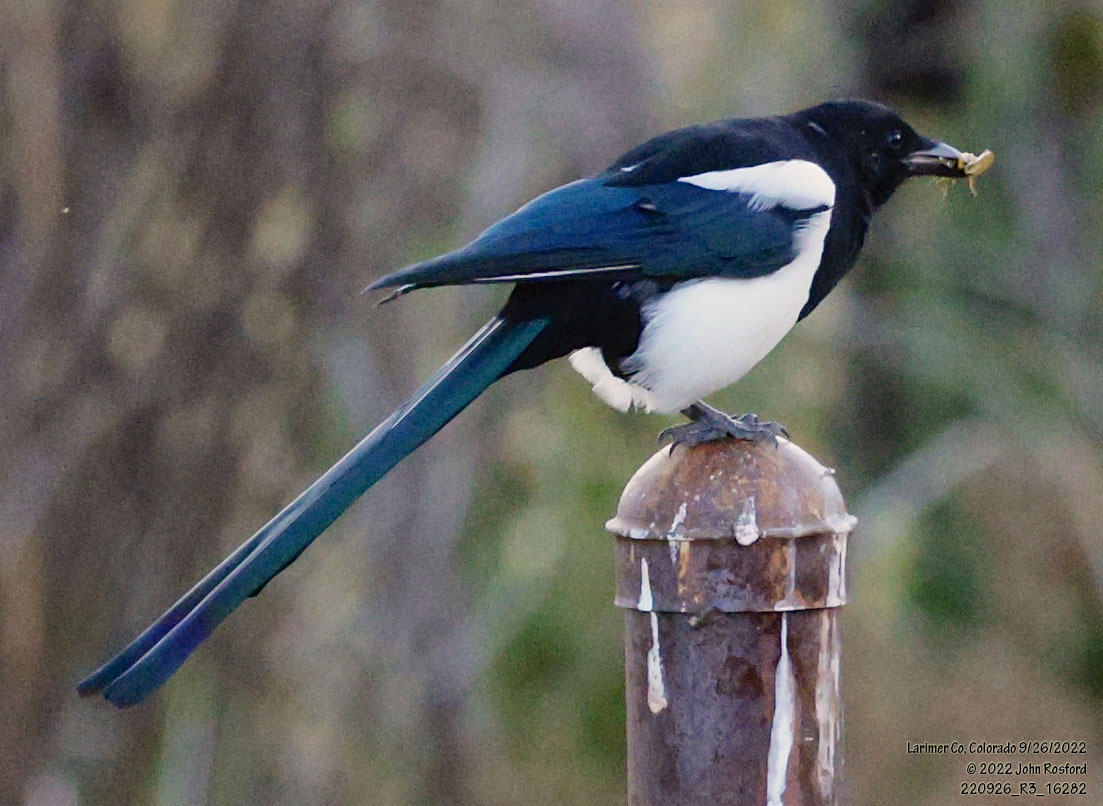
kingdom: Animalia
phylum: Chordata
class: Aves
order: Passeriformes
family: Corvidae
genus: Pica
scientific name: Pica hudsonia
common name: Black-billed magpie
